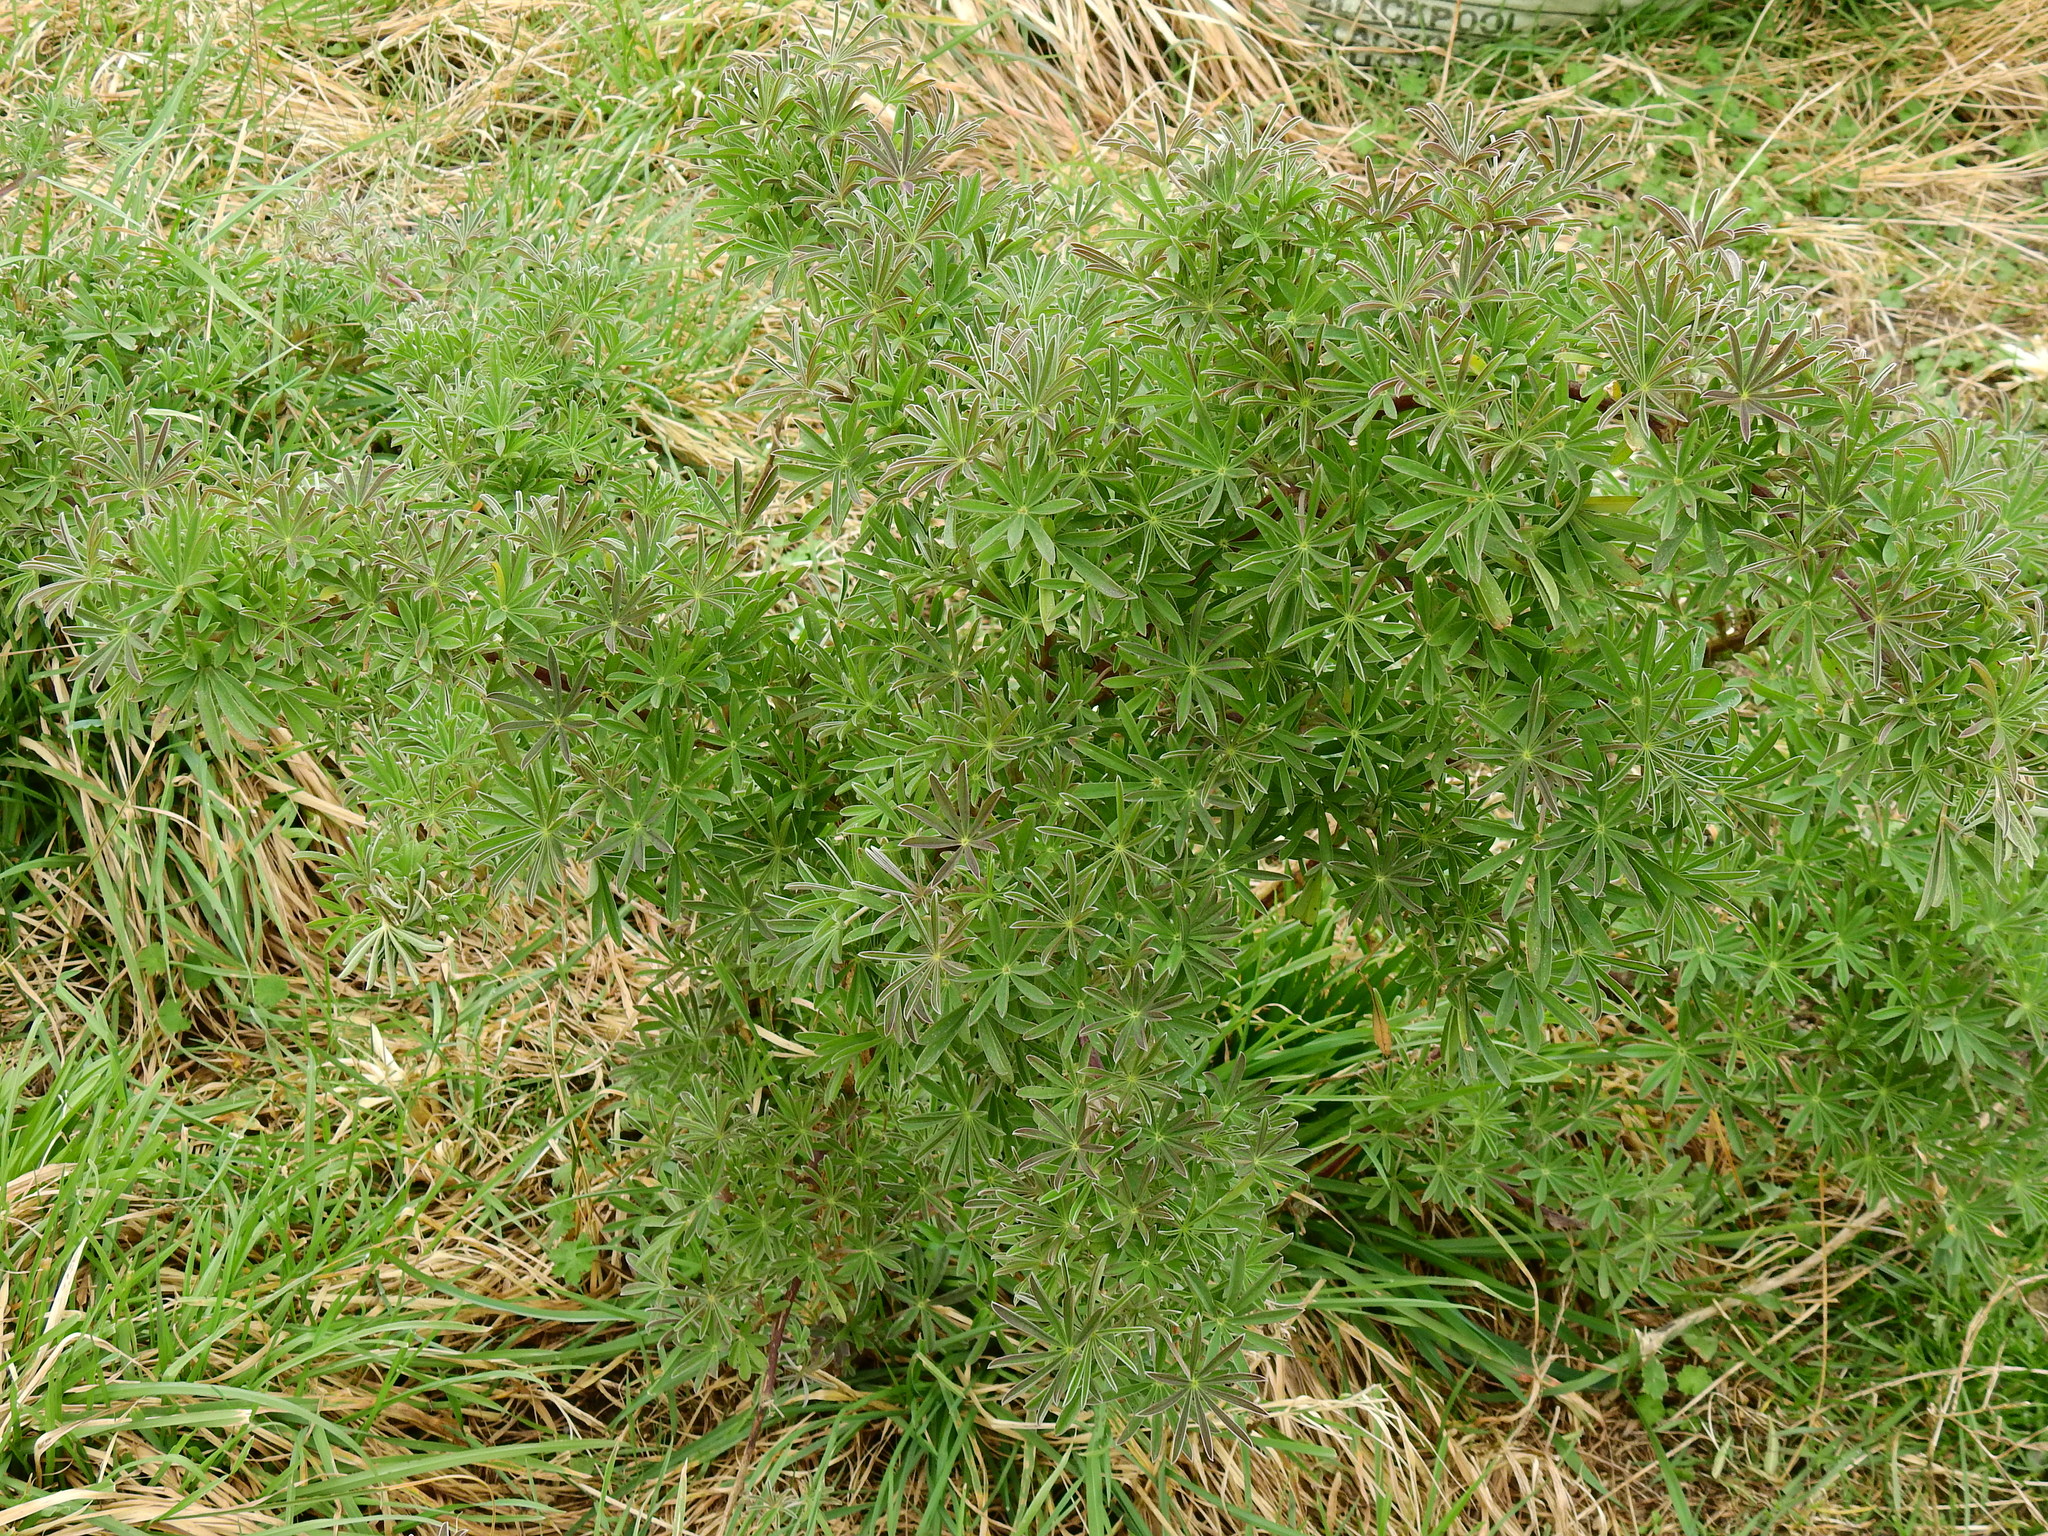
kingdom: Plantae
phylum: Tracheophyta
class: Magnoliopsida
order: Fabales
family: Fabaceae
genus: Lupinus
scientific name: Lupinus arboreus
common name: Yellow bush lupine
